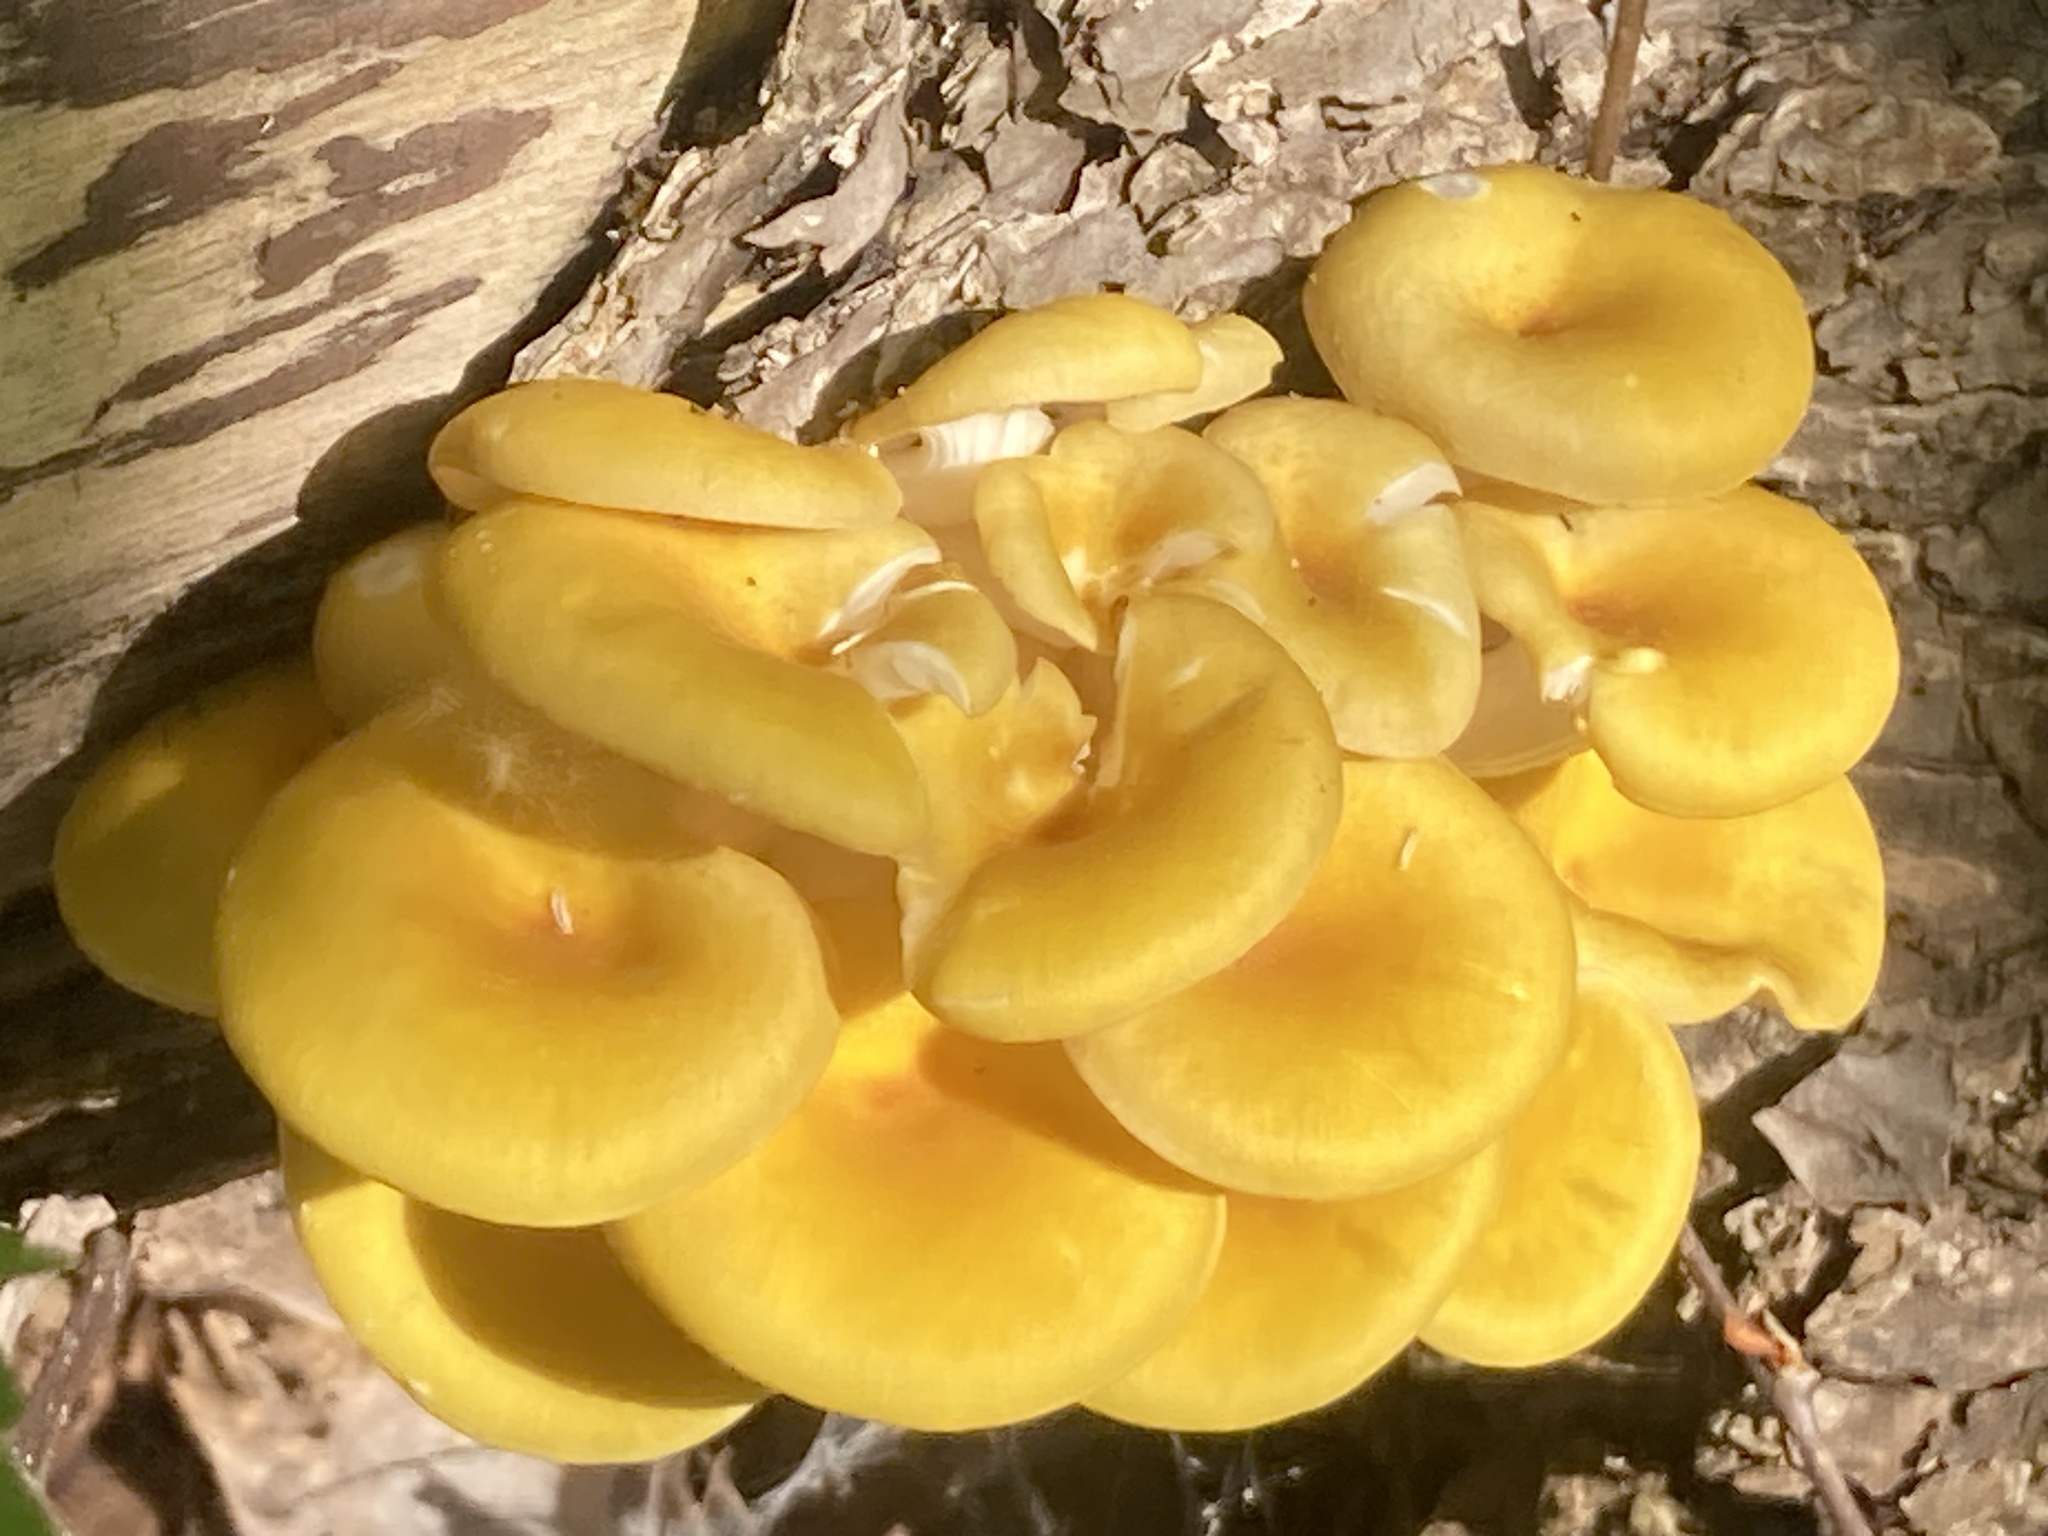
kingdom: Fungi
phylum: Basidiomycota
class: Agaricomycetes
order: Agaricales
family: Pleurotaceae
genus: Pleurotus
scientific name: Pleurotus citrinopileatus
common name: Golden oyster mushroom
